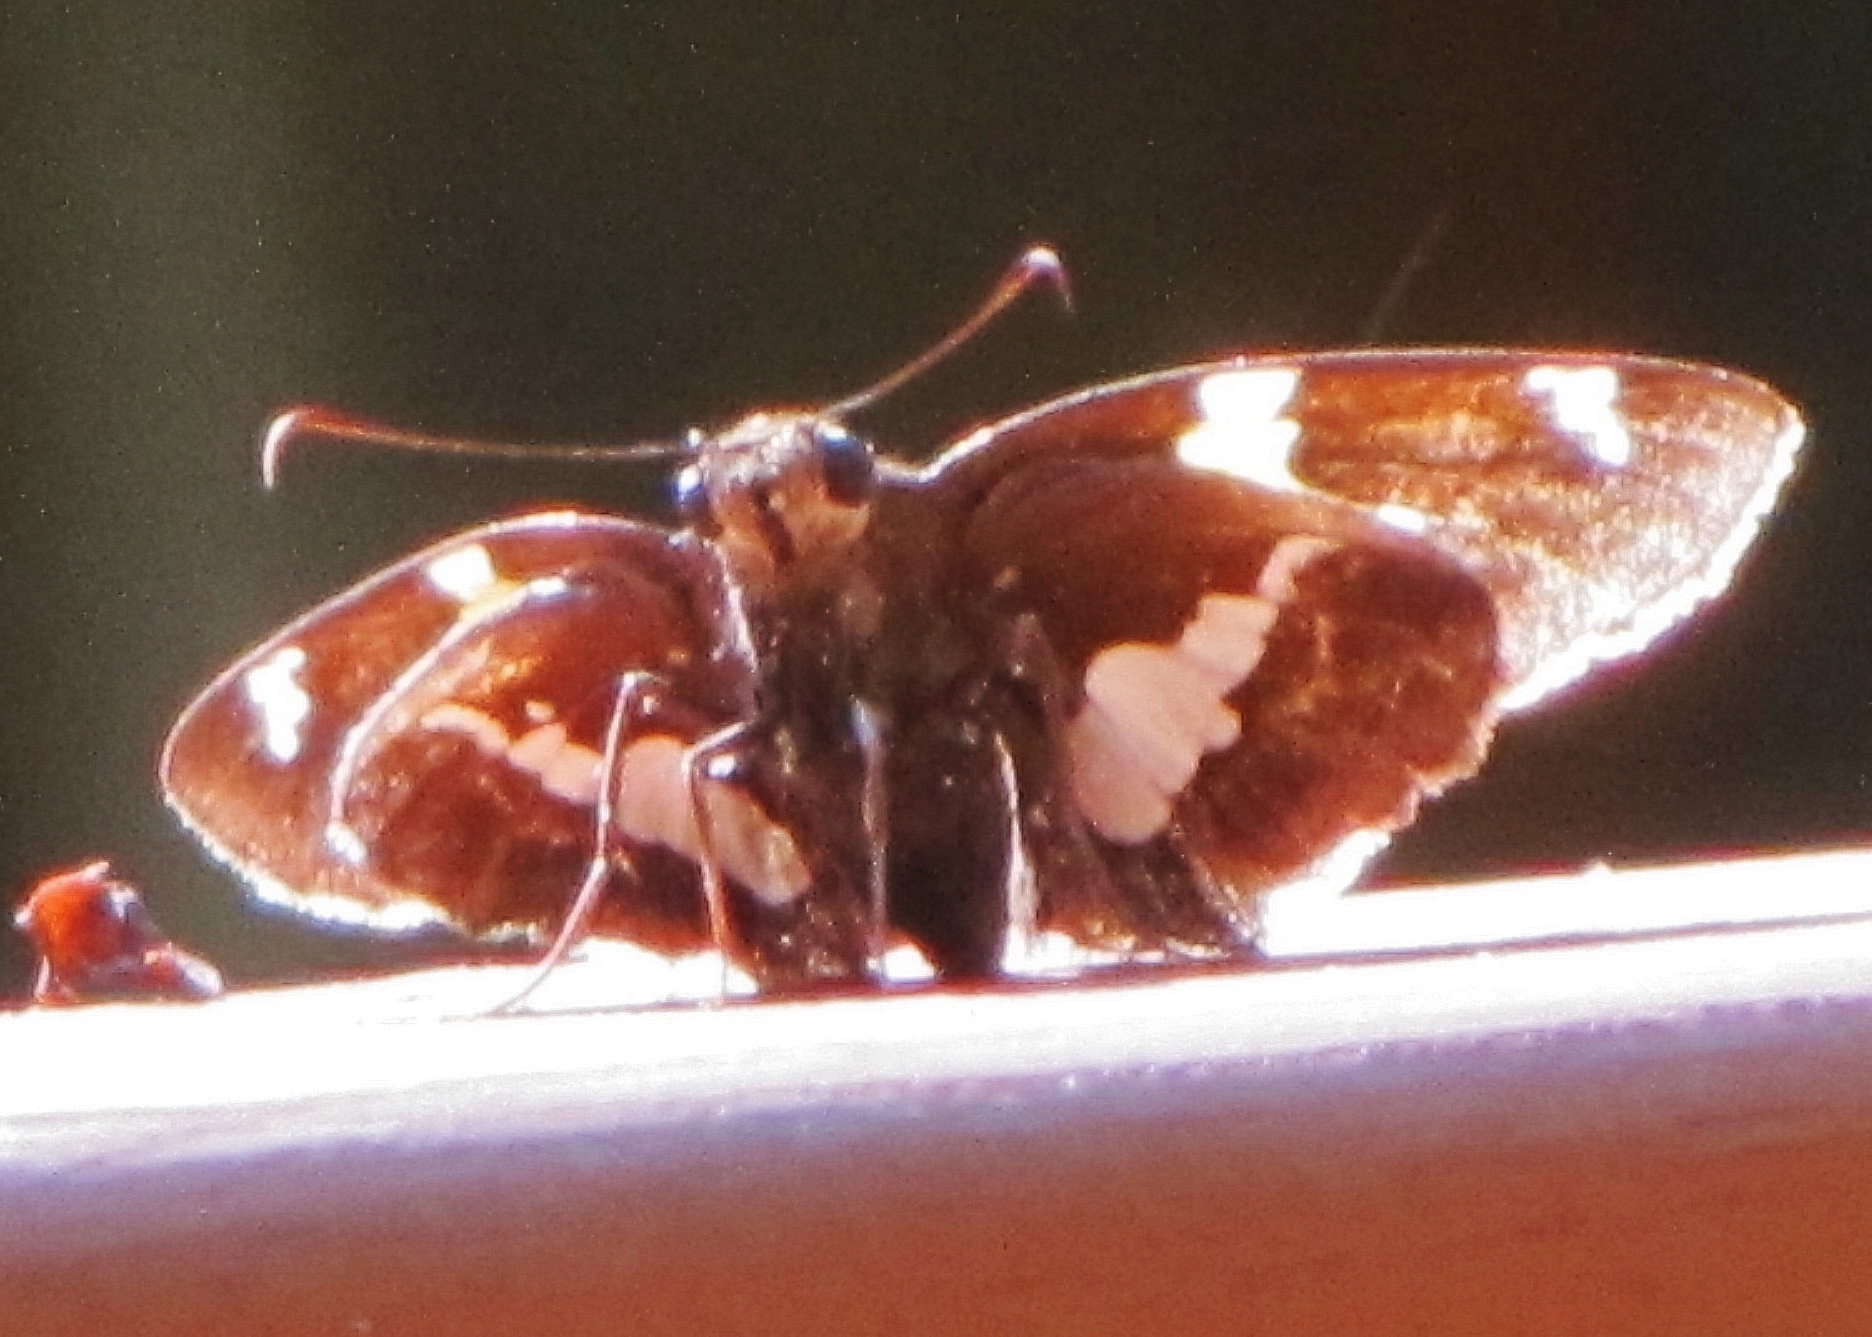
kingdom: Animalia
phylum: Arthropoda
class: Insecta
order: Lepidoptera
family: Hesperiidae
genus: Epargyreus
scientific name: Epargyreus clarus
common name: Silver-spotted skipper
